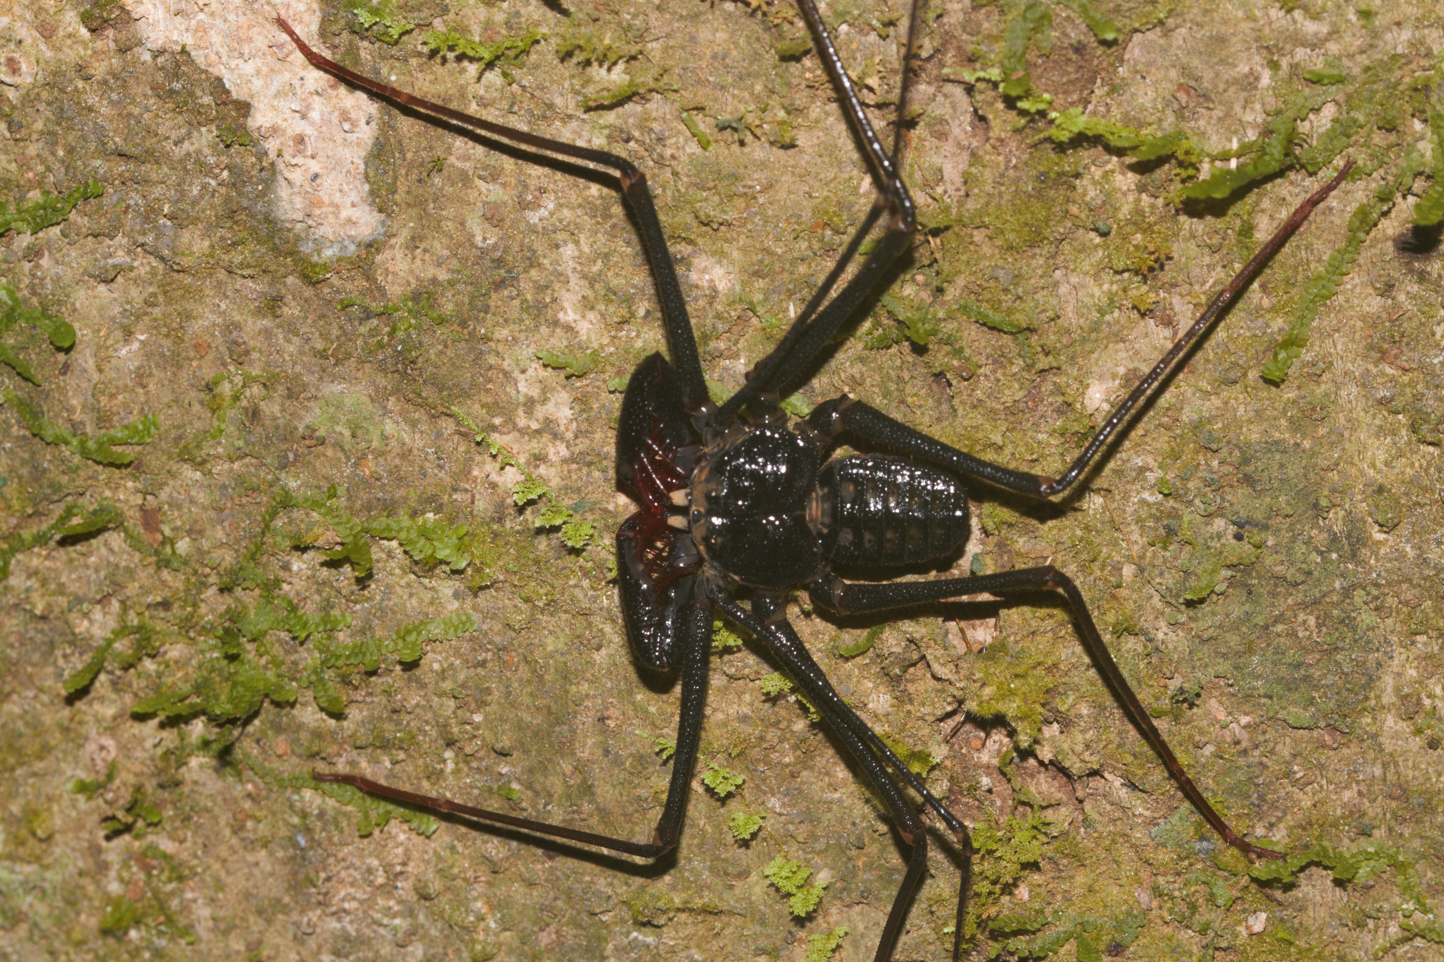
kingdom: Animalia
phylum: Arthropoda
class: Arachnida
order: Amblypygi
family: Phrynidae
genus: Heterophrynus
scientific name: Heterophrynus alces
